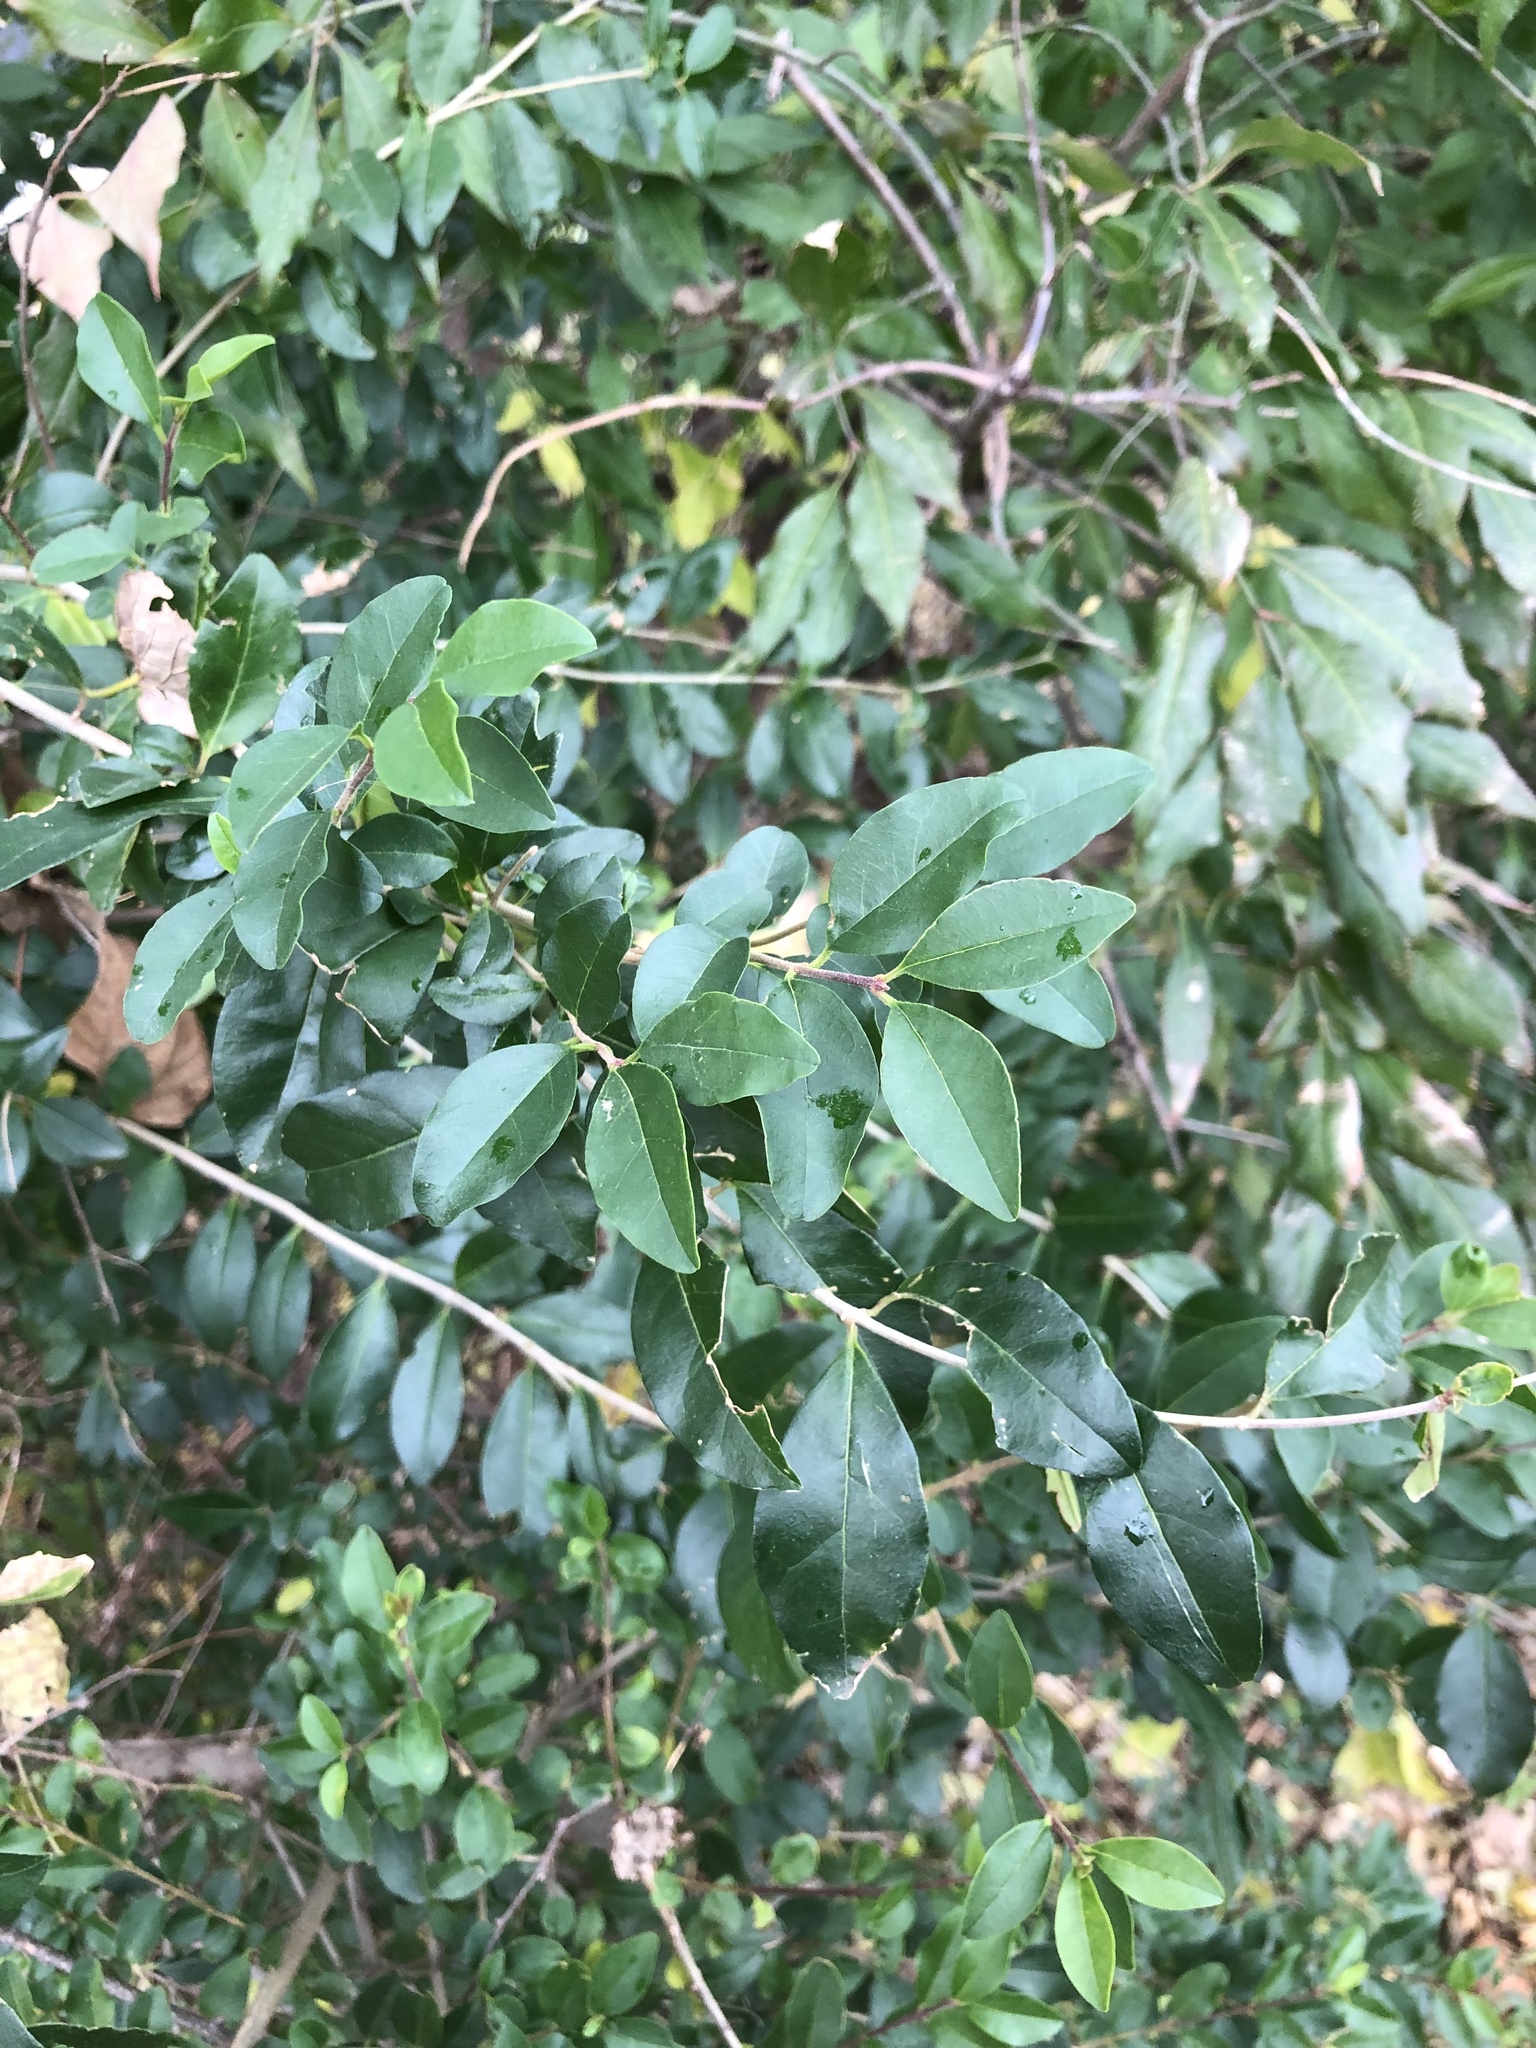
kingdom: Plantae
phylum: Tracheophyta
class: Magnoliopsida
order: Lamiales
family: Oleaceae
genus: Ligustrum
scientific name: Ligustrum sinense
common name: Chinese privet
